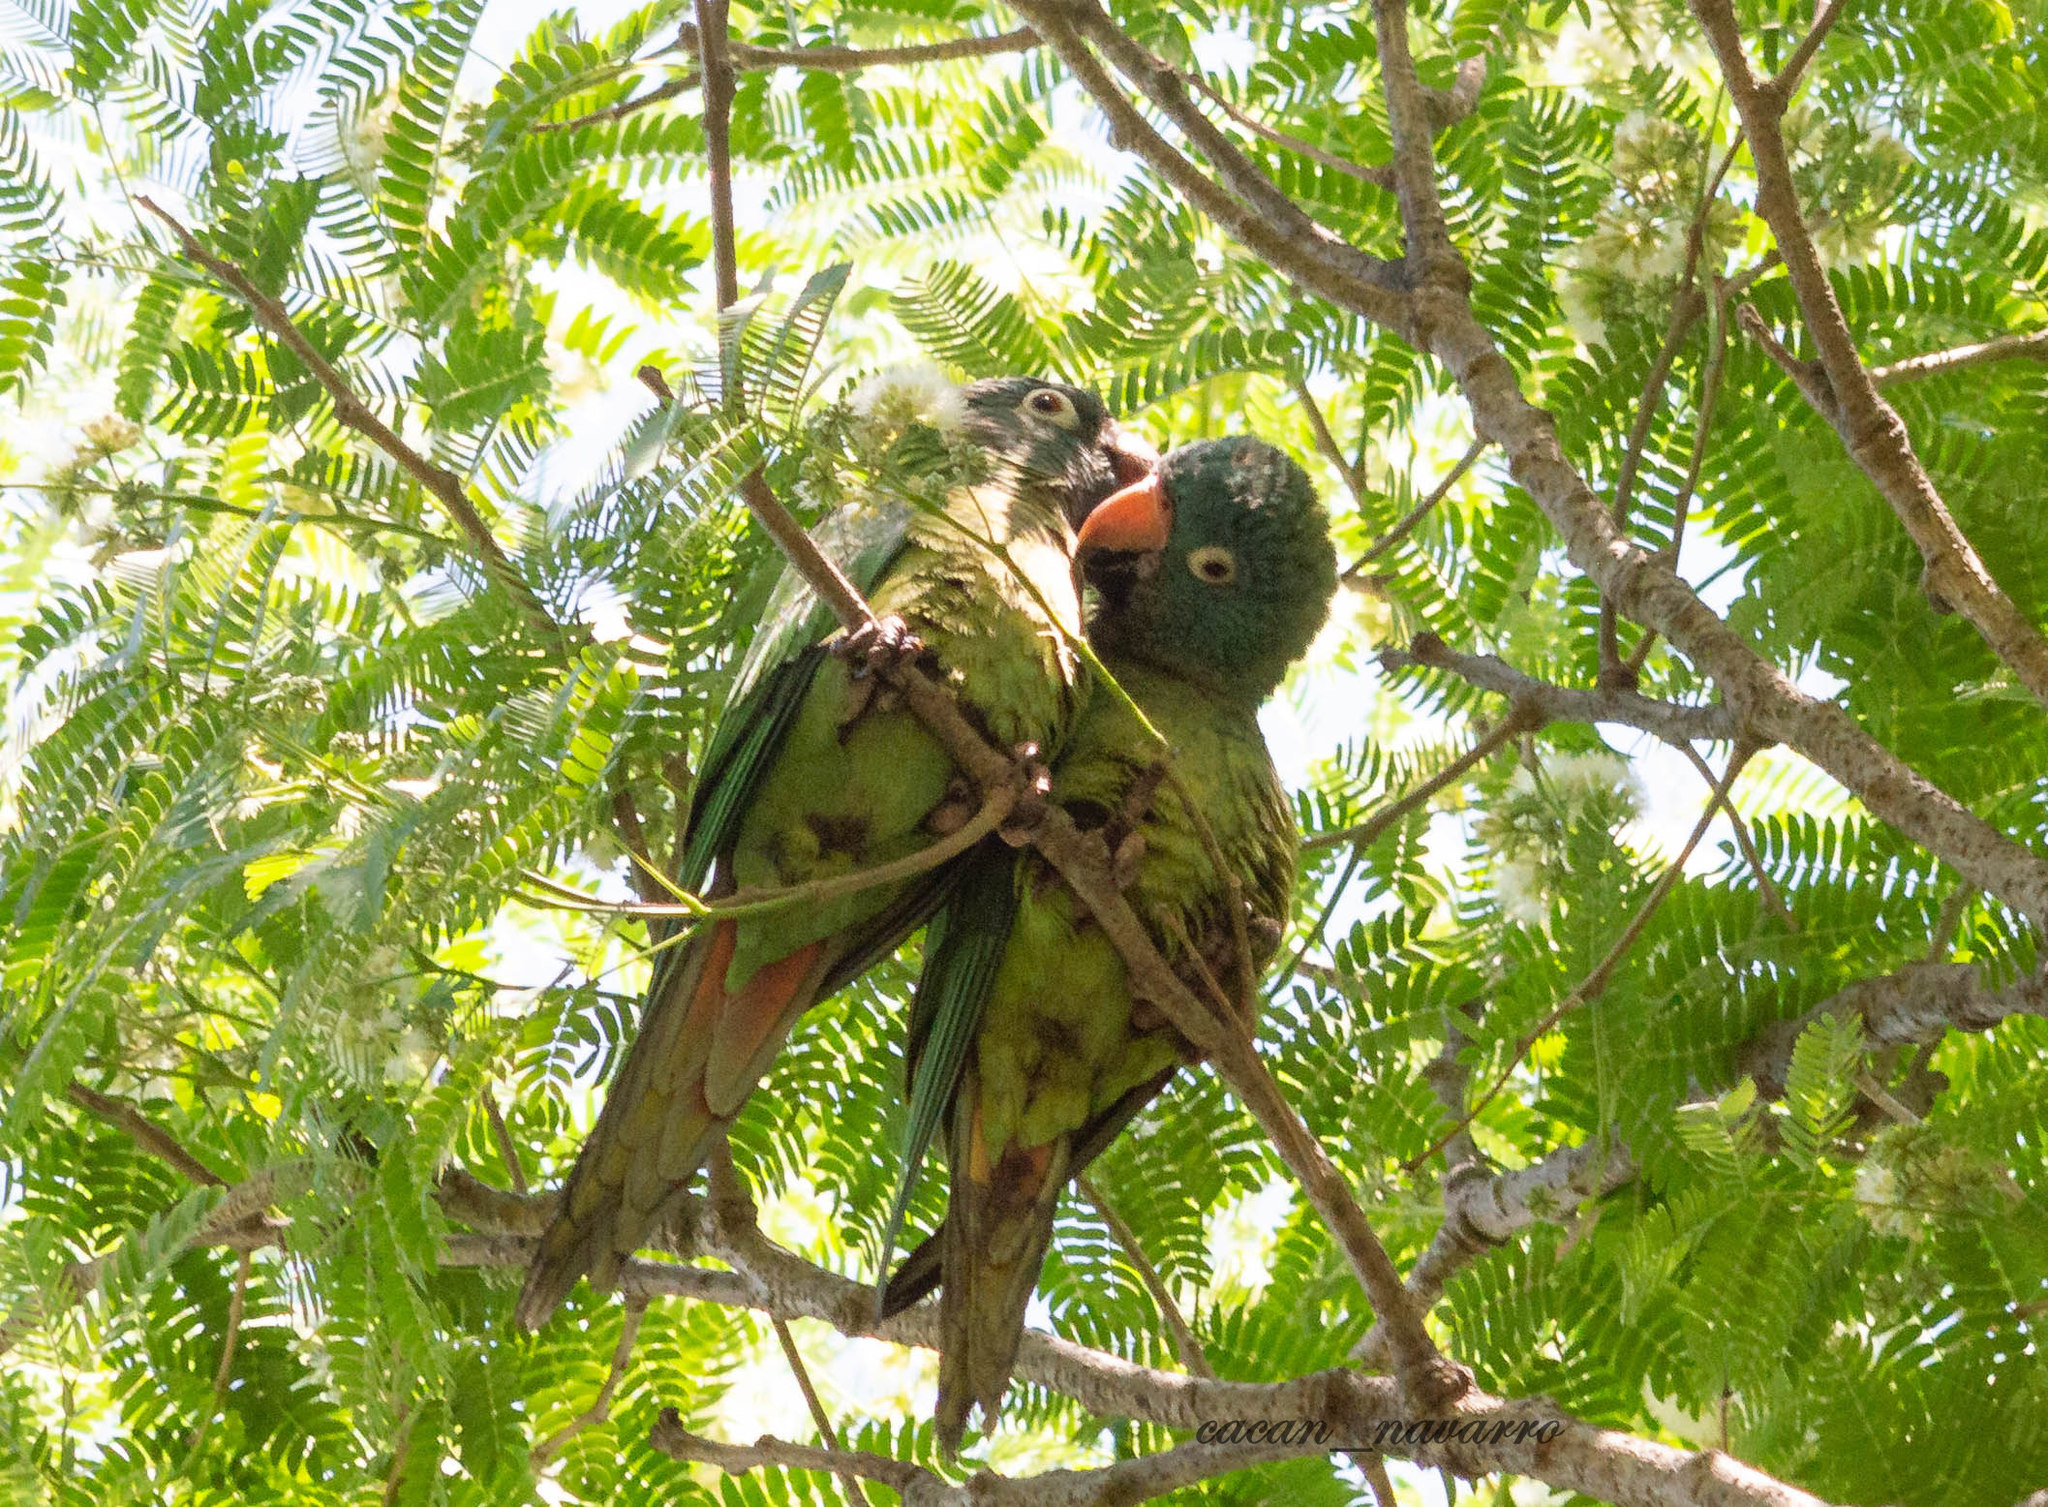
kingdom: Animalia
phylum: Chordata
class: Aves
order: Psittaciformes
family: Psittacidae
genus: Aratinga
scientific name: Aratinga acuticaudata
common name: Blue-crowned parakeet
